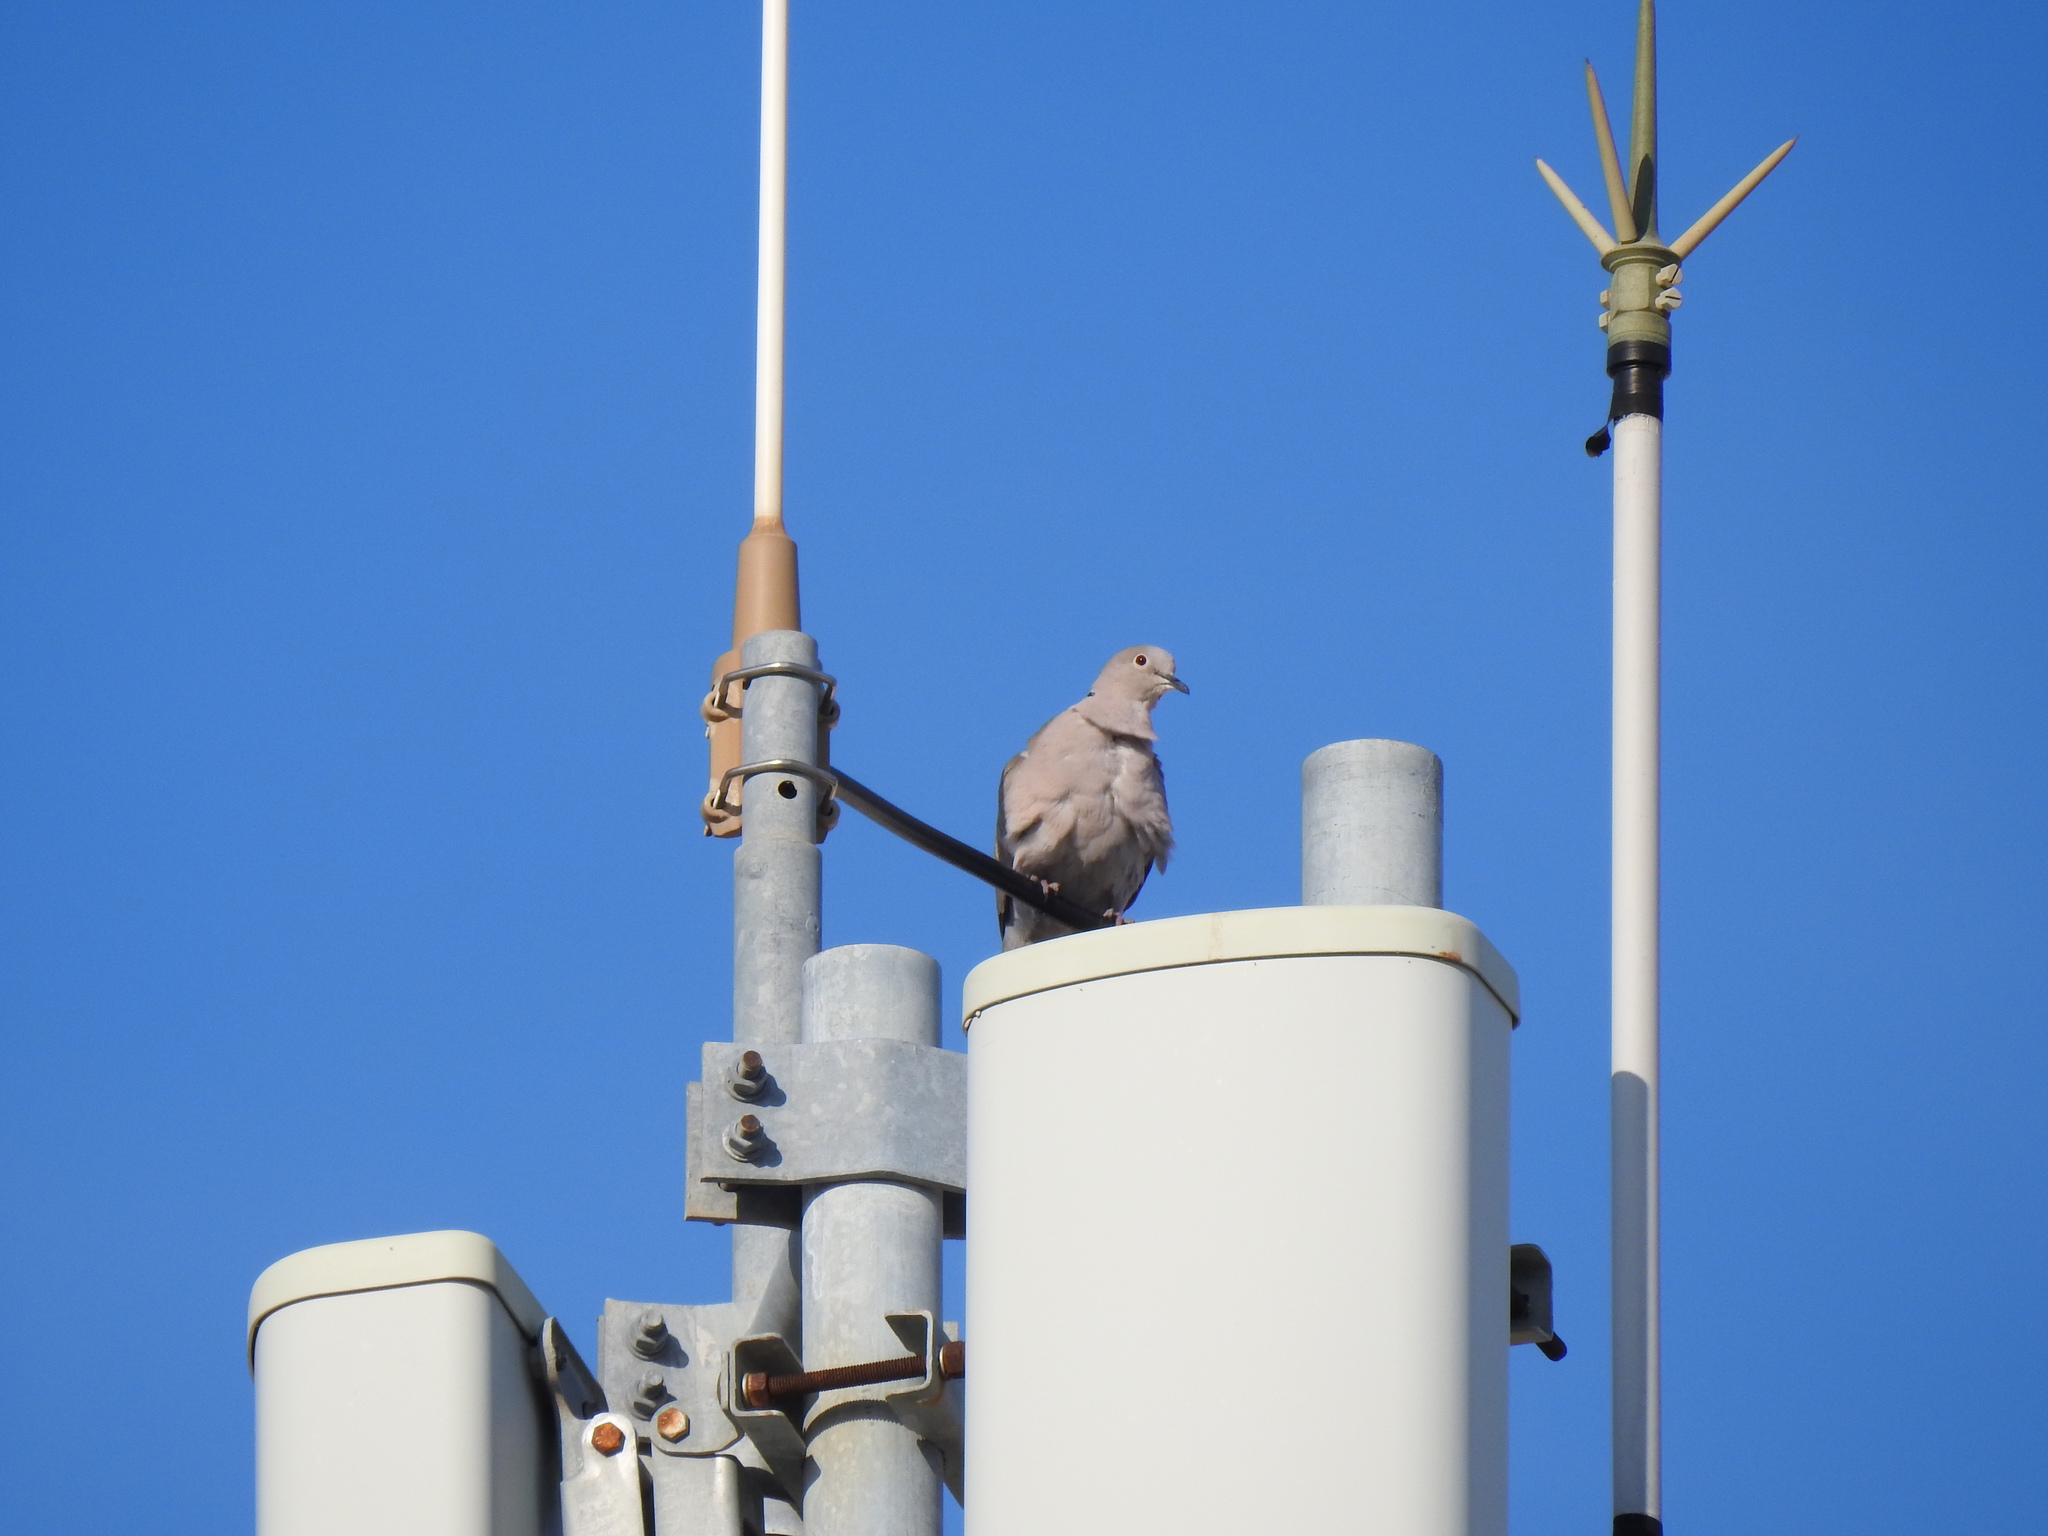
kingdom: Animalia
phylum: Chordata
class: Aves
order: Columbiformes
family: Columbidae
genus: Streptopelia
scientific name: Streptopelia decaocto
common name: Eurasian collared dove
